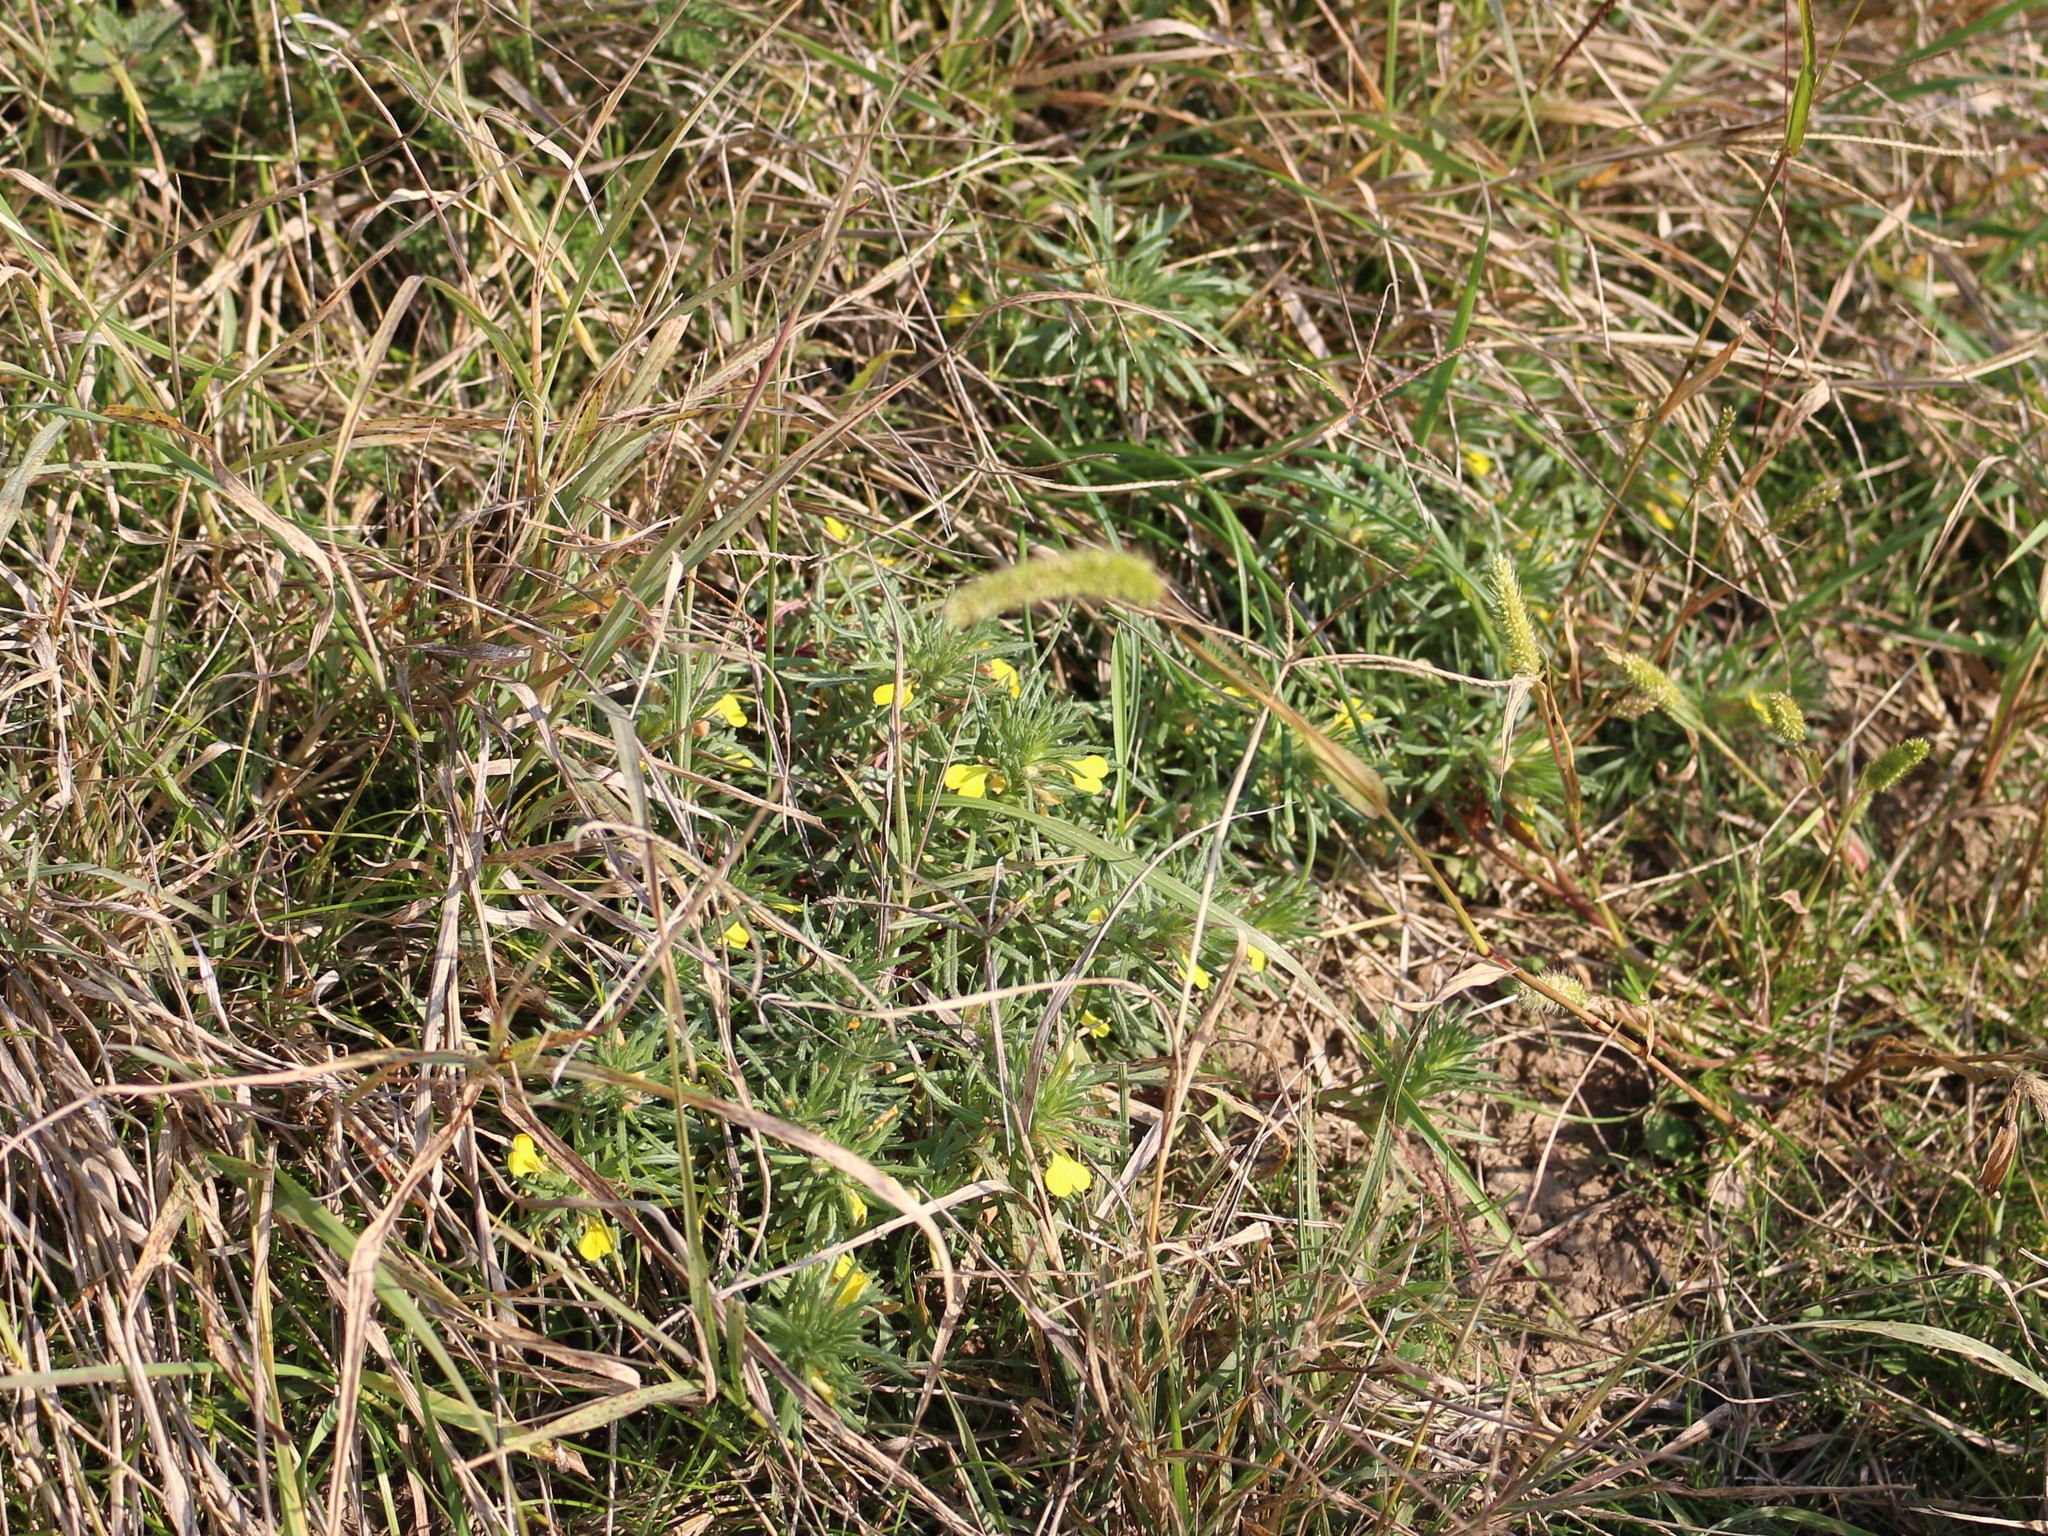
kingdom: Plantae
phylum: Tracheophyta
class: Magnoliopsida
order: Lamiales
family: Lamiaceae
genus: Ajuga
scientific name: Ajuga chamaepitys
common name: Ground-pine
